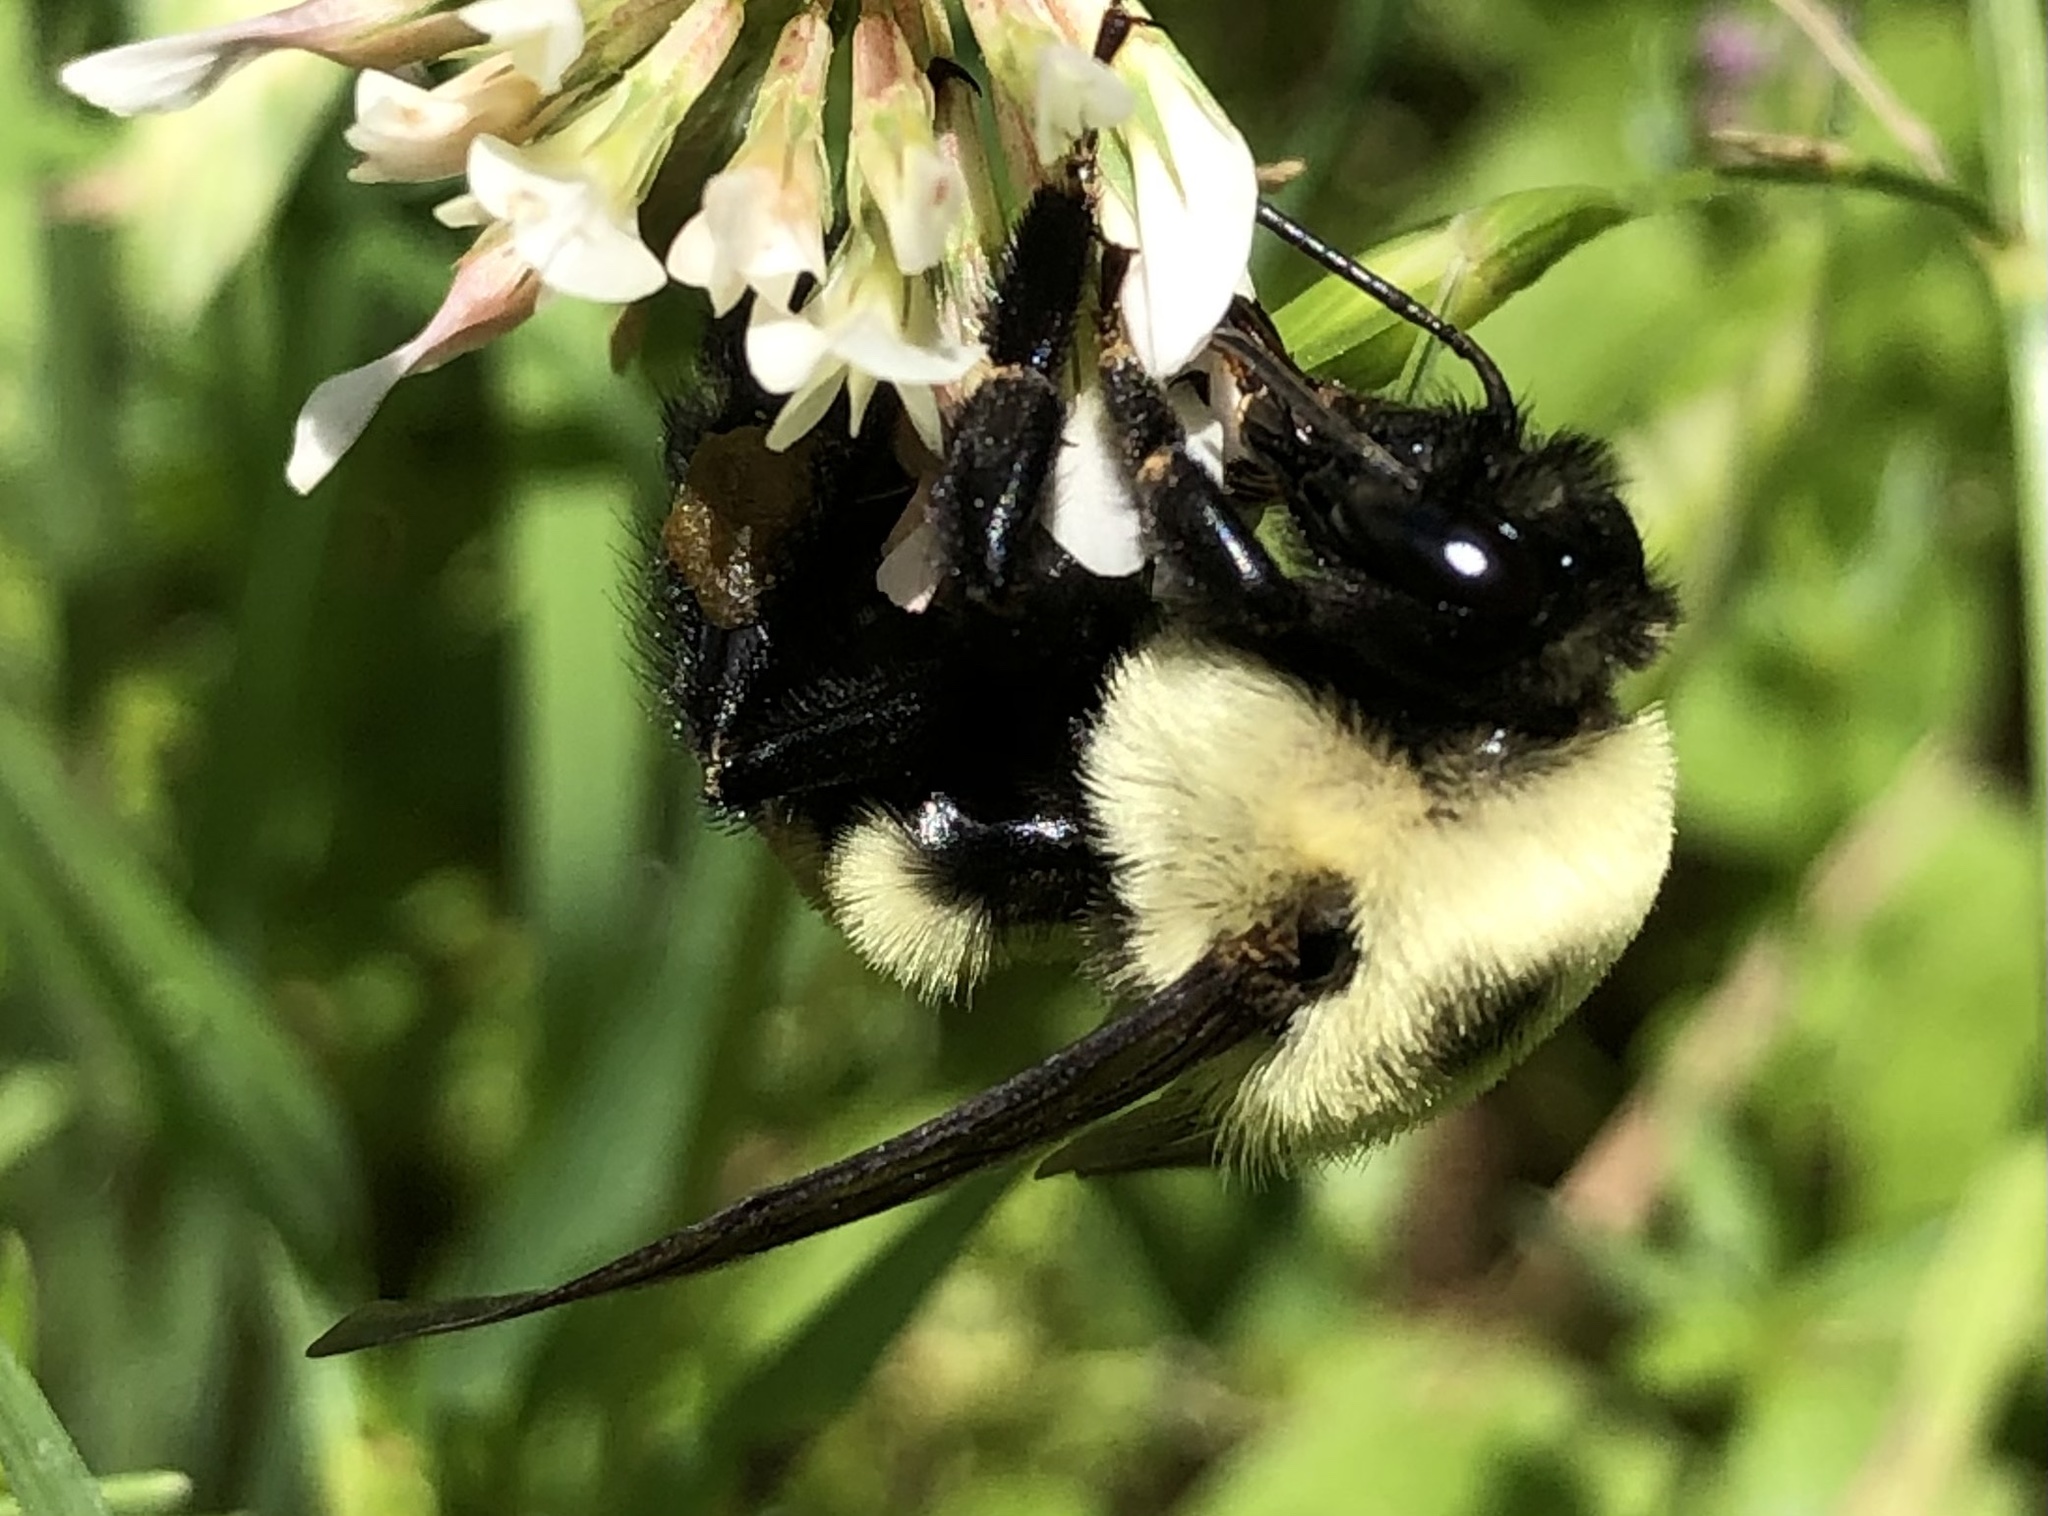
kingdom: Animalia
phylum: Arthropoda
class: Insecta
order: Hymenoptera
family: Apidae
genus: Bombus
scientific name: Bombus griseocollis
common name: Brown-belted bumble bee
